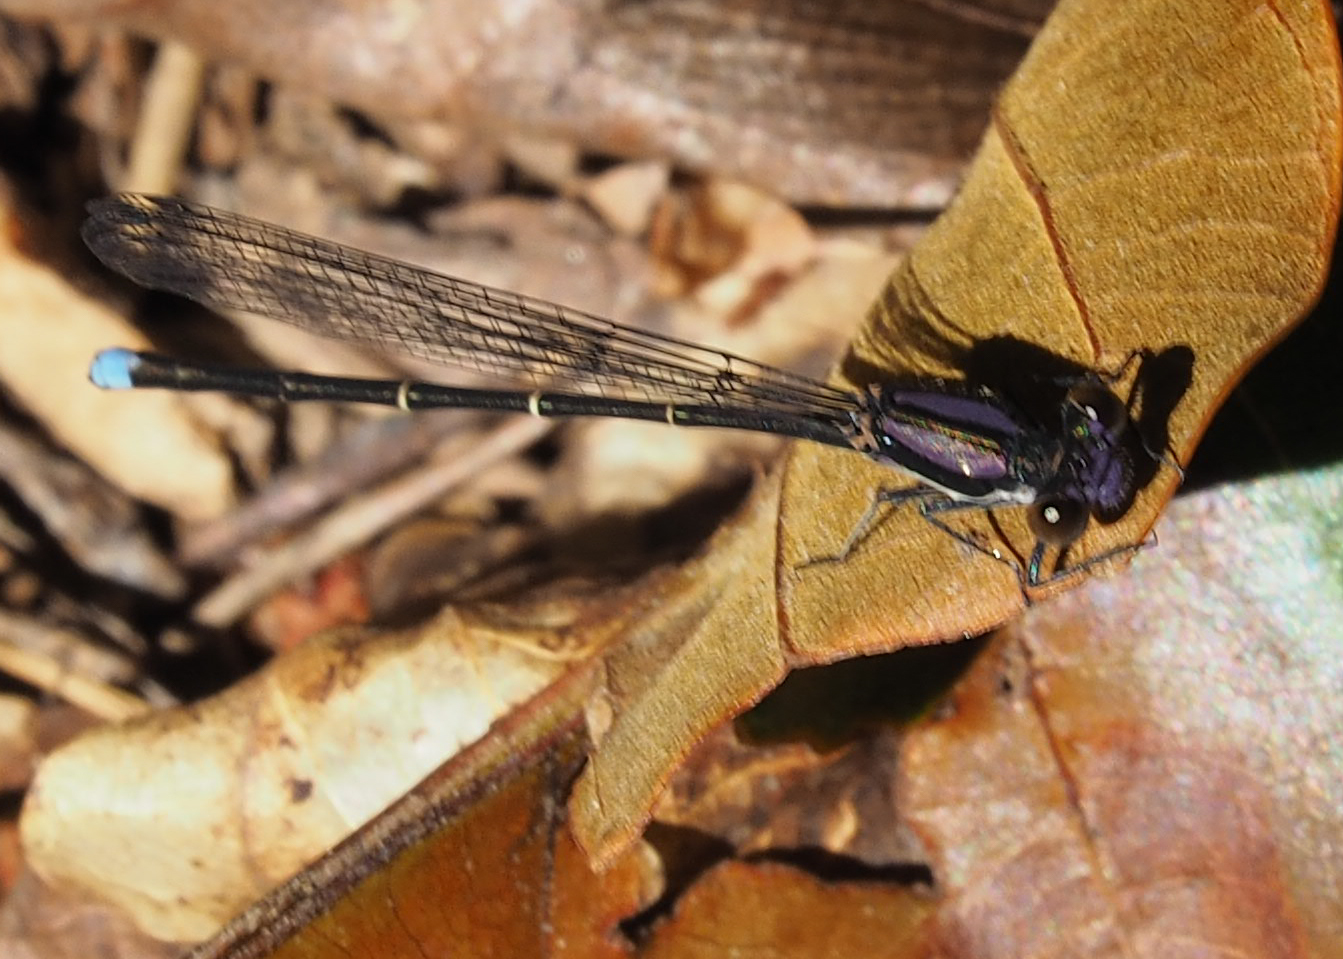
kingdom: Animalia
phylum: Arthropoda
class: Insecta
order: Odonata
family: Coenagrionidae
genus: Argia
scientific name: Argia tibialis
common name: Blue-tipped dancer
